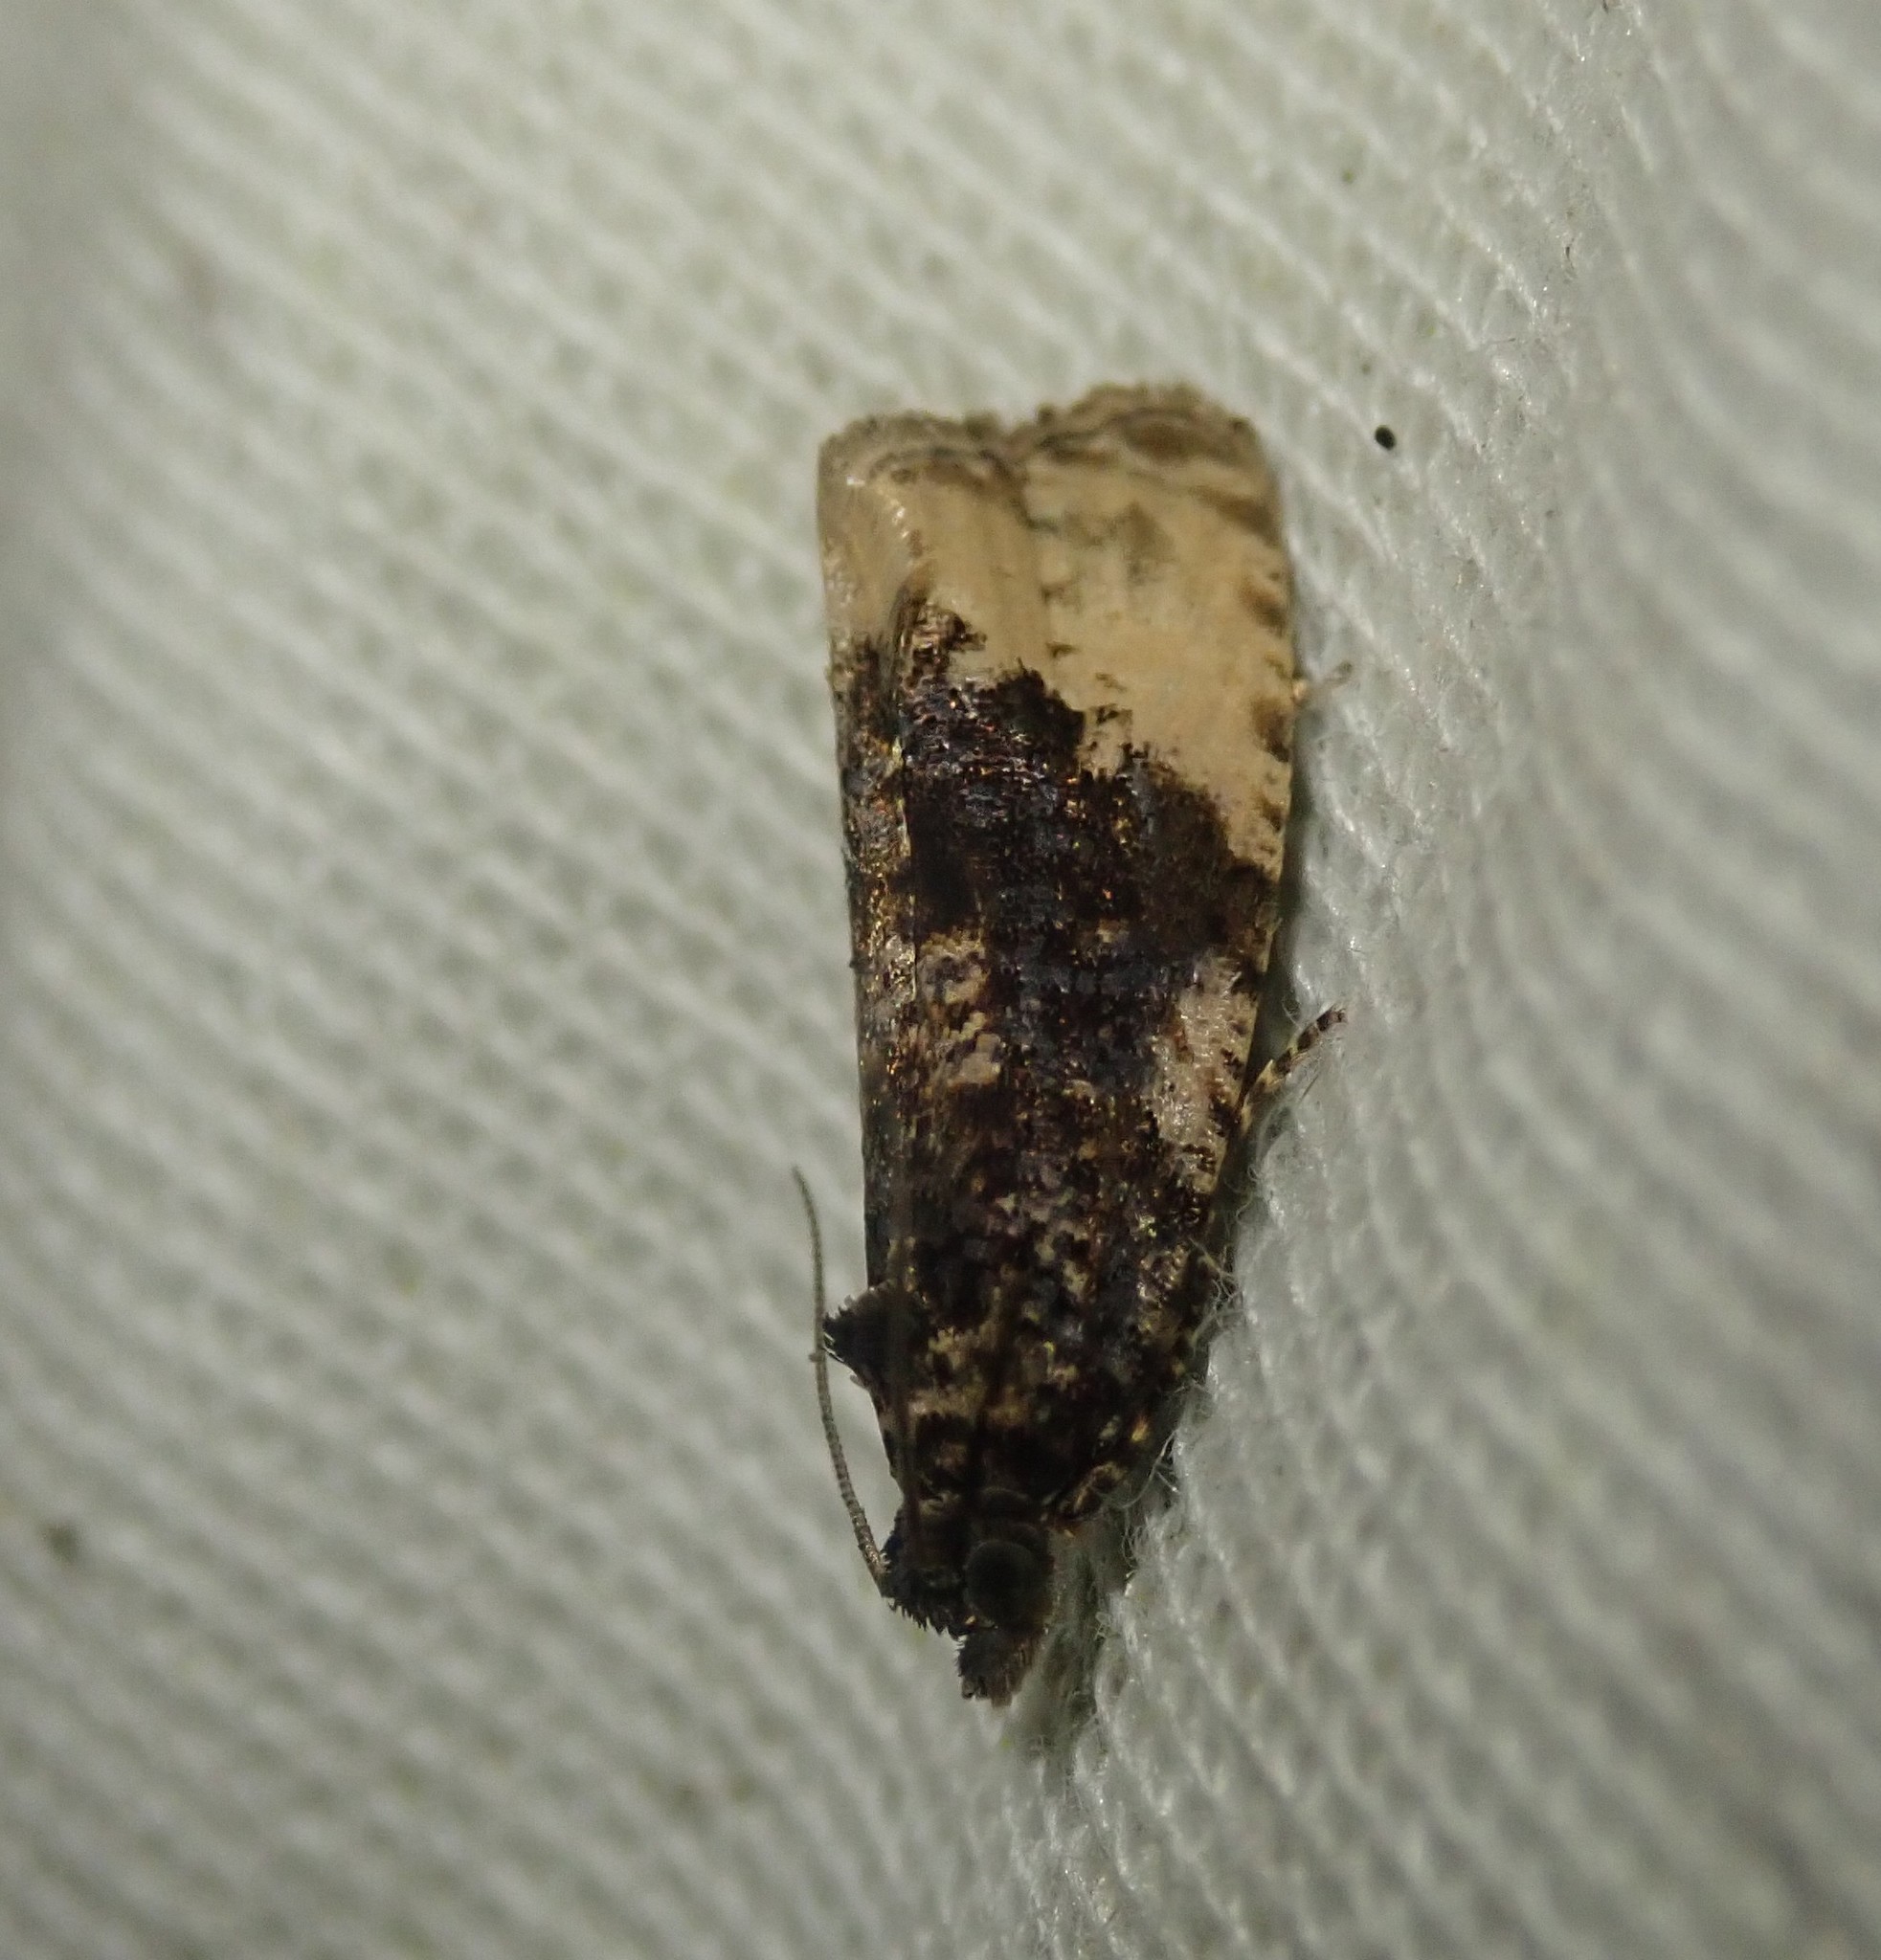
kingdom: Animalia
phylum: Arthropoda
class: Insecta
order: Lepidoptera
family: Tortricidae
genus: Hedya
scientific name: Hedya ochroleucana
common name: Buff-tipped marble
